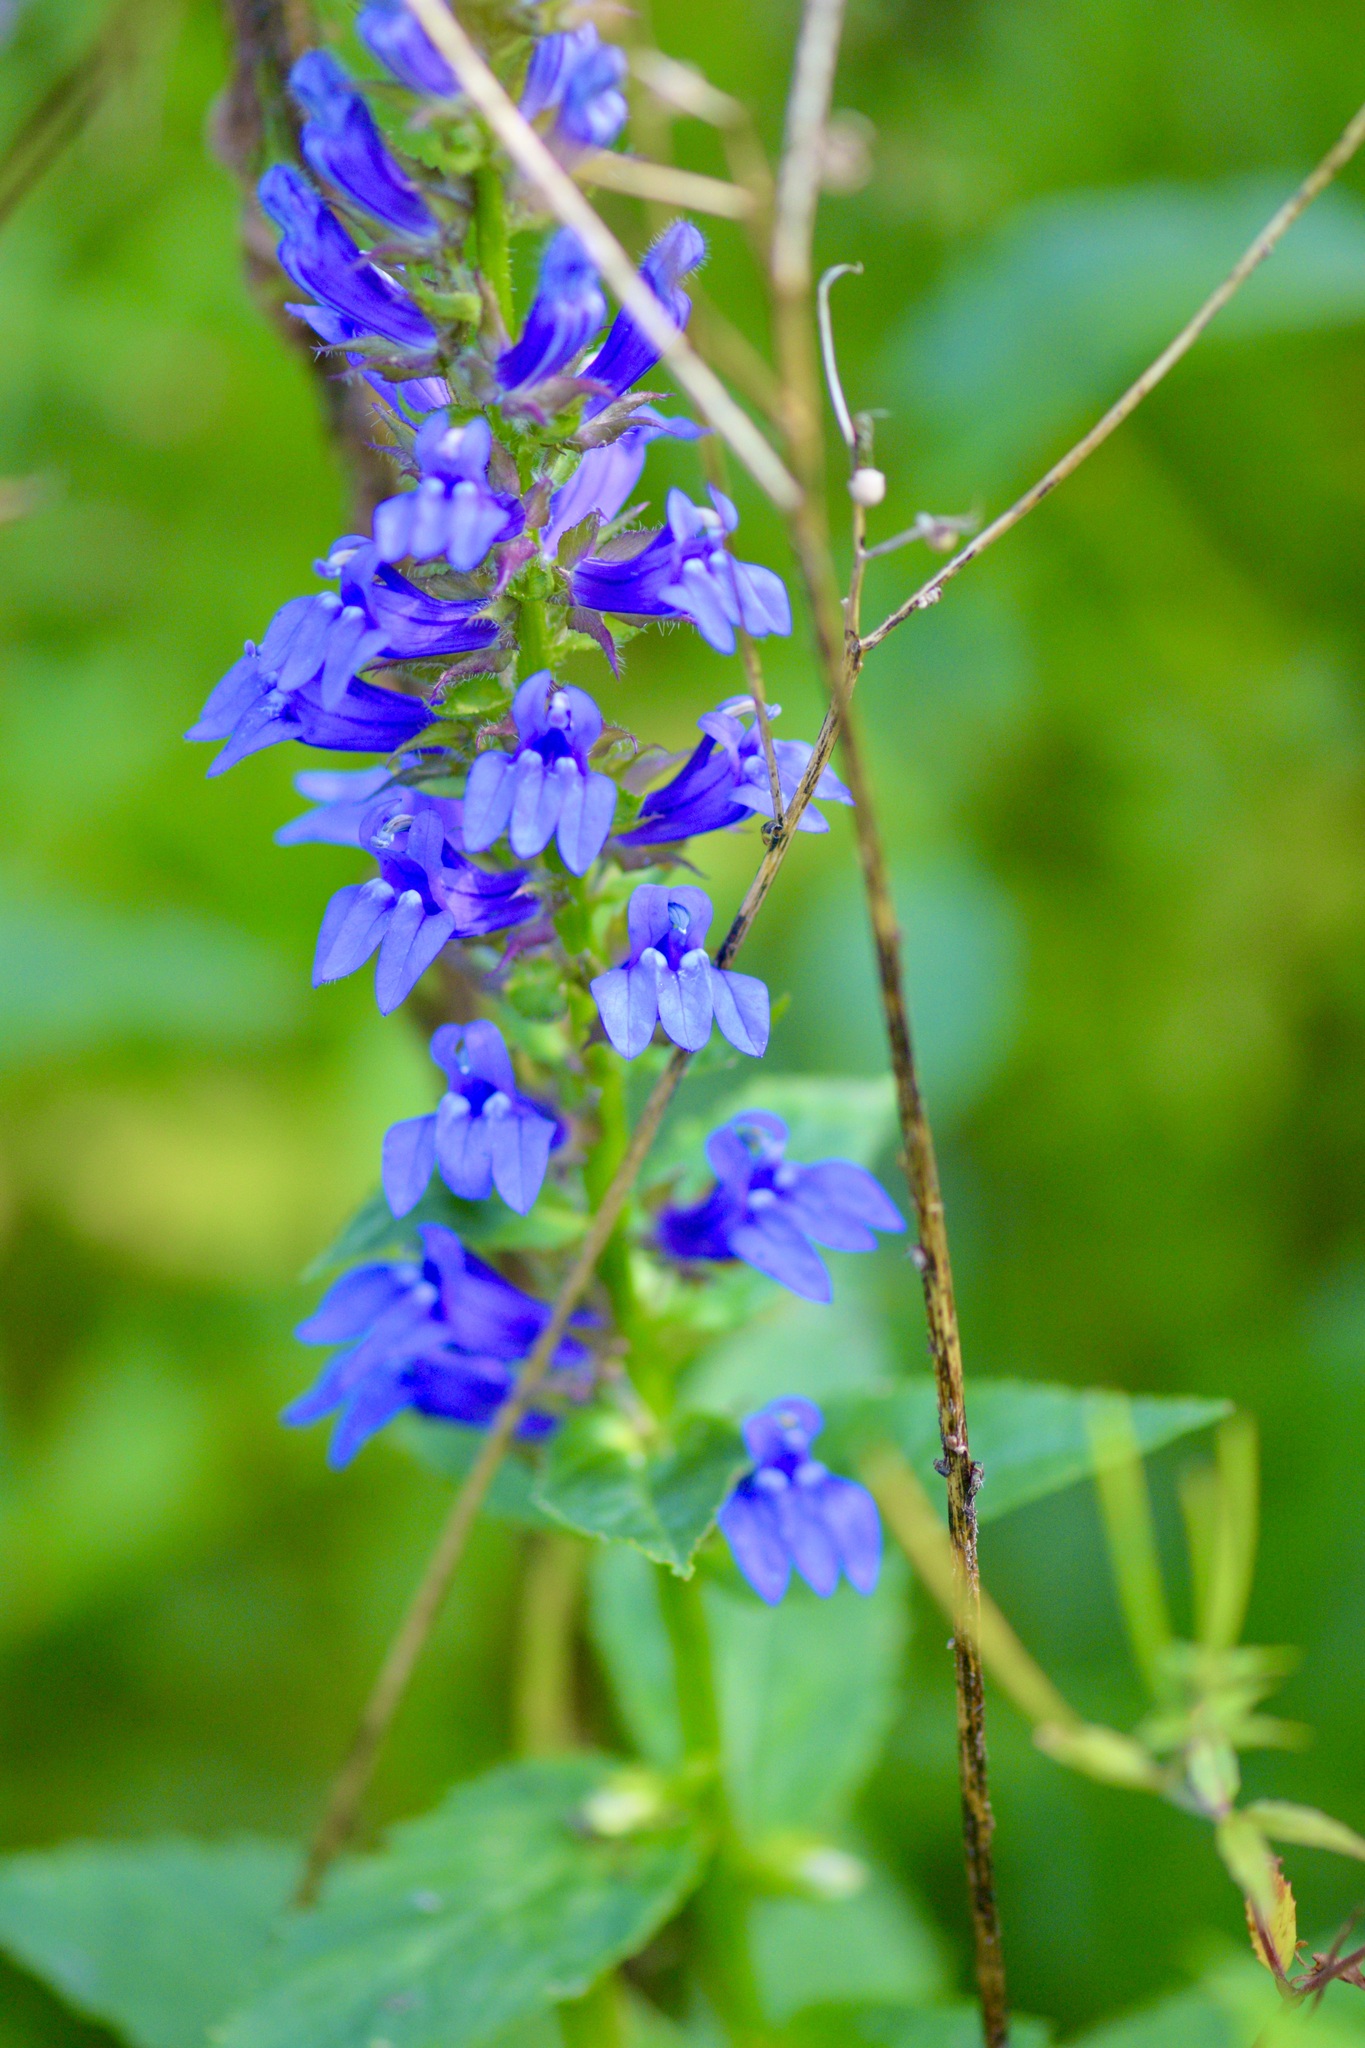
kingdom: Plantae
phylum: Tracheophyta
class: Magnoliopsida
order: Asterales
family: Campanulaceae
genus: Lobelia
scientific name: Lobelia siphilitica
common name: Great lobelia
